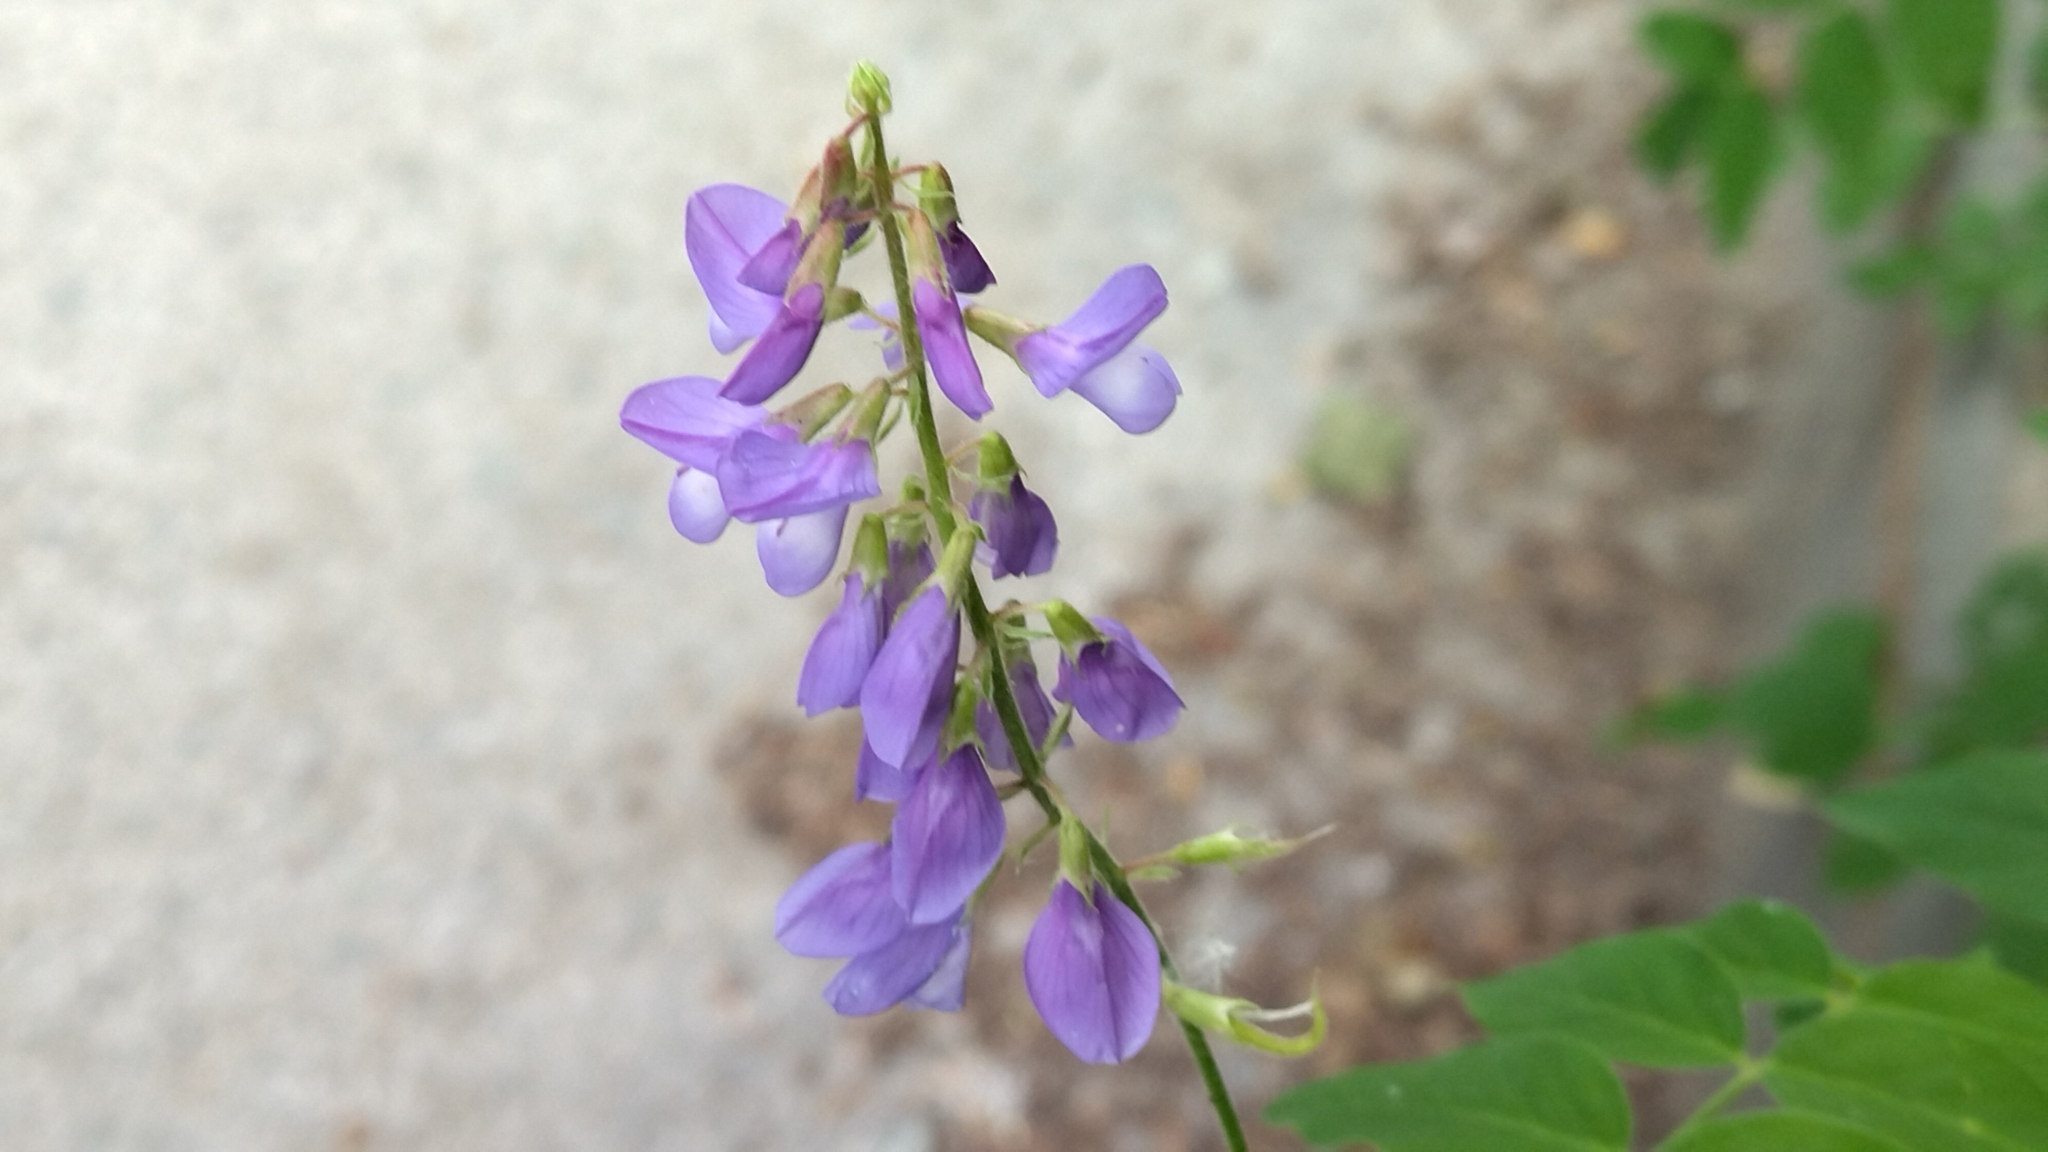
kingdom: Plantae
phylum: Tracheophyta
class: Magnoliopsida
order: Fabales
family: Fabaceae
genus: Galega
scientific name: Galega orientalis
